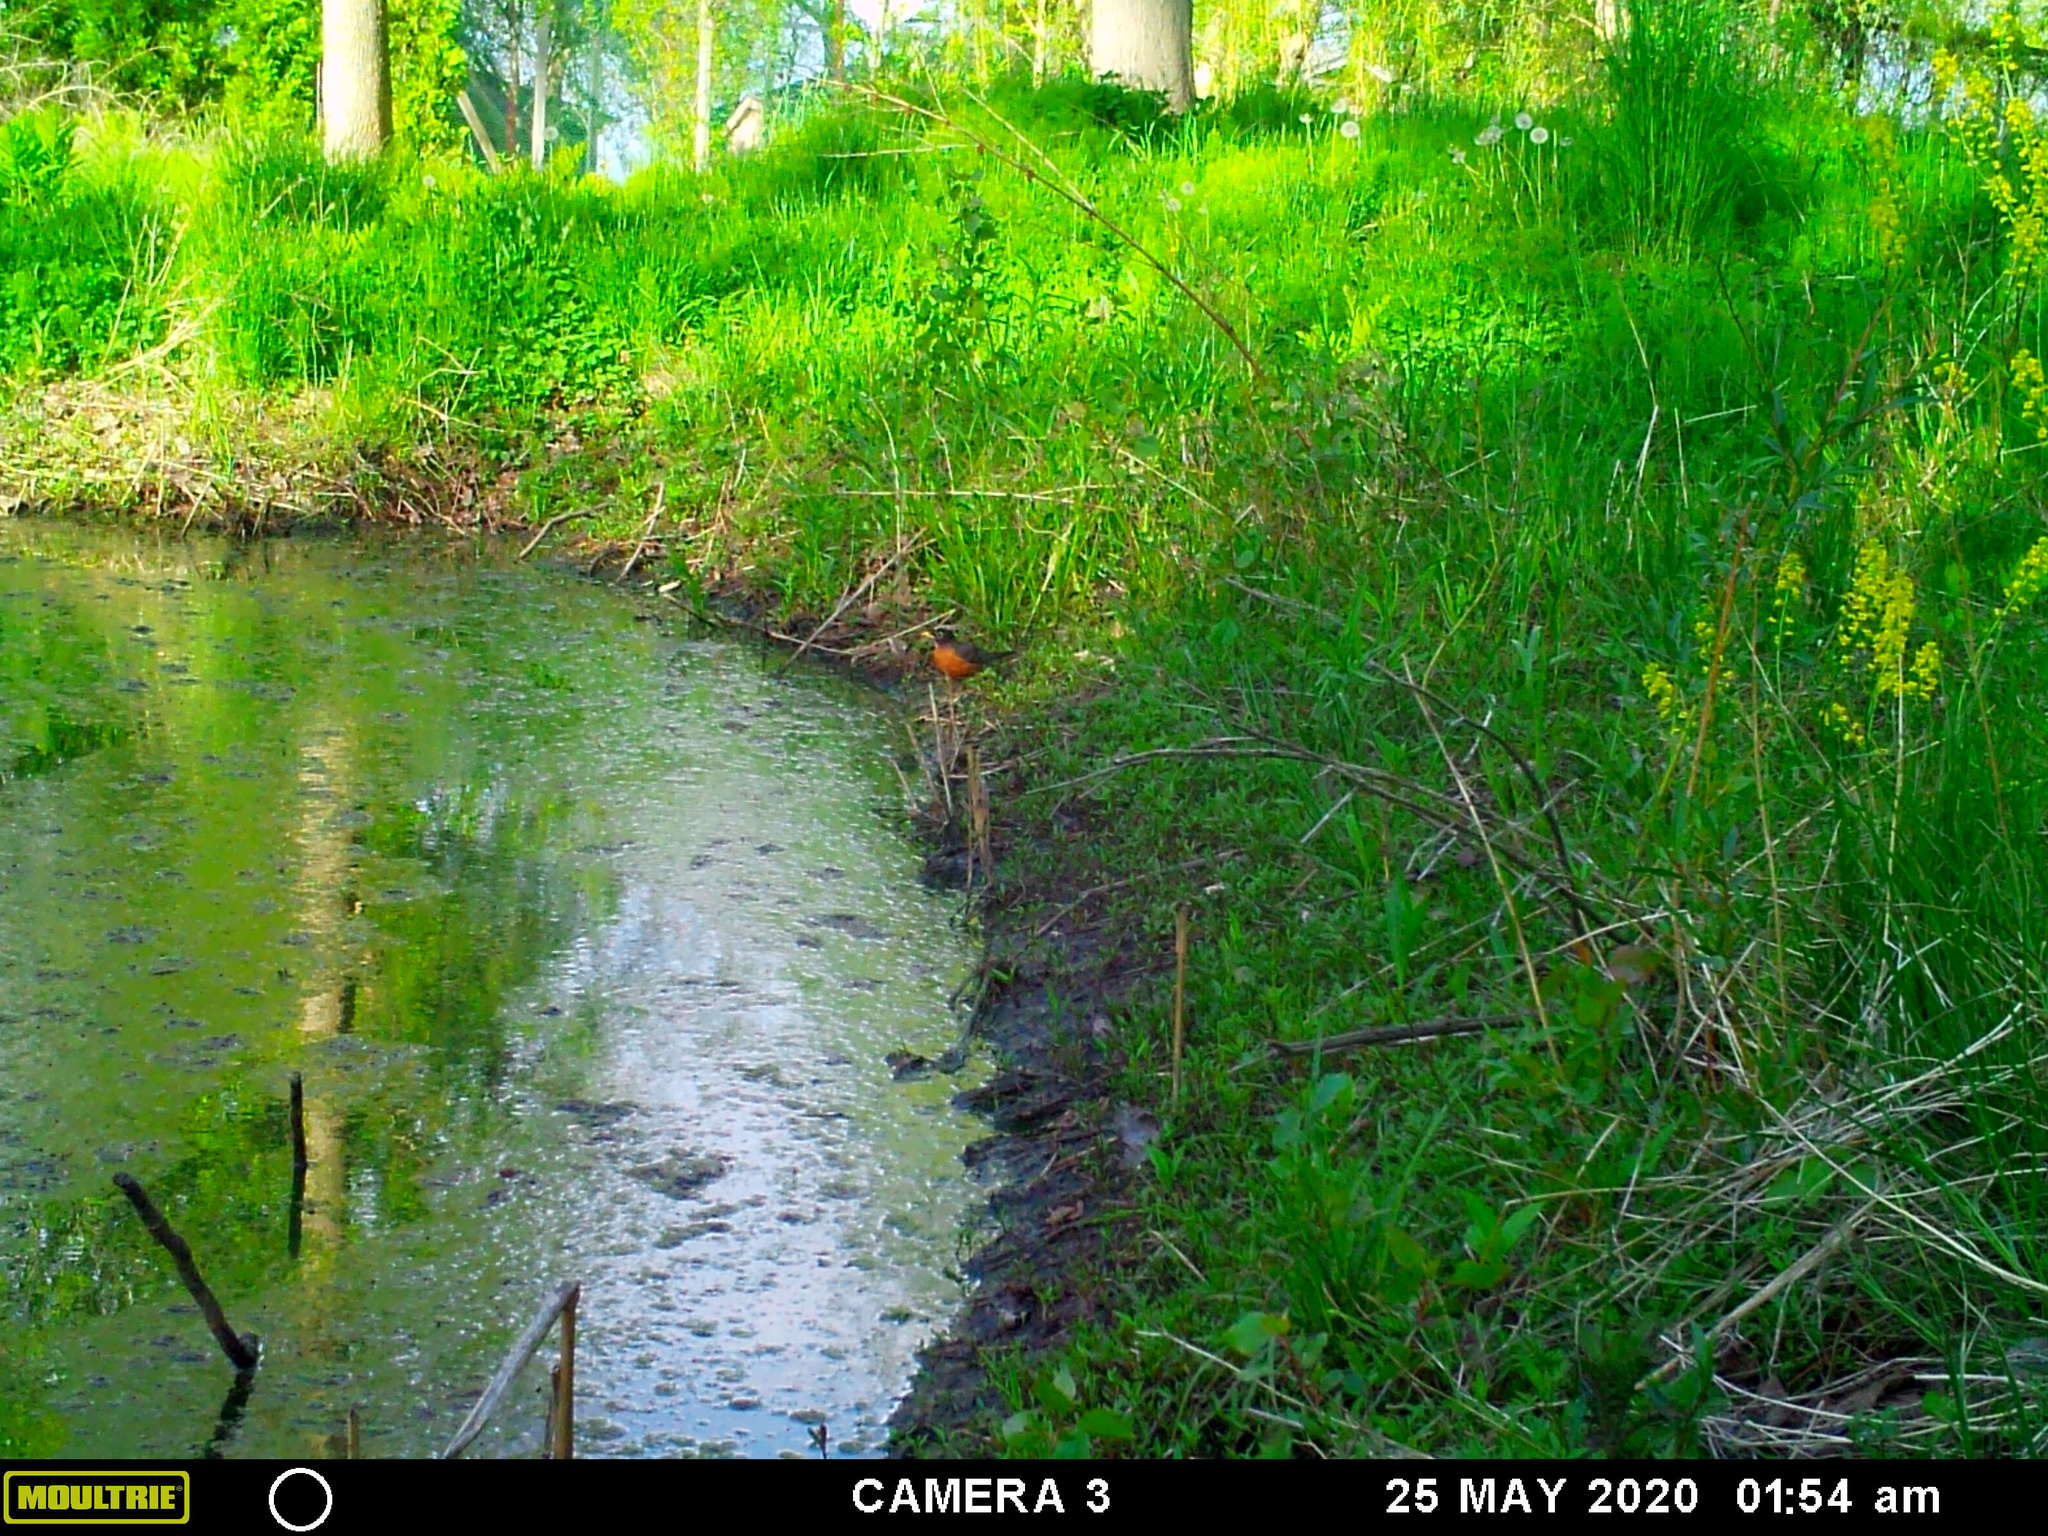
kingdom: Animalia
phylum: Chordata
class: Aves
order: Passeriformes
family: Turdidae
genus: Turdus
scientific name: Turdus migratorius
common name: American robin
